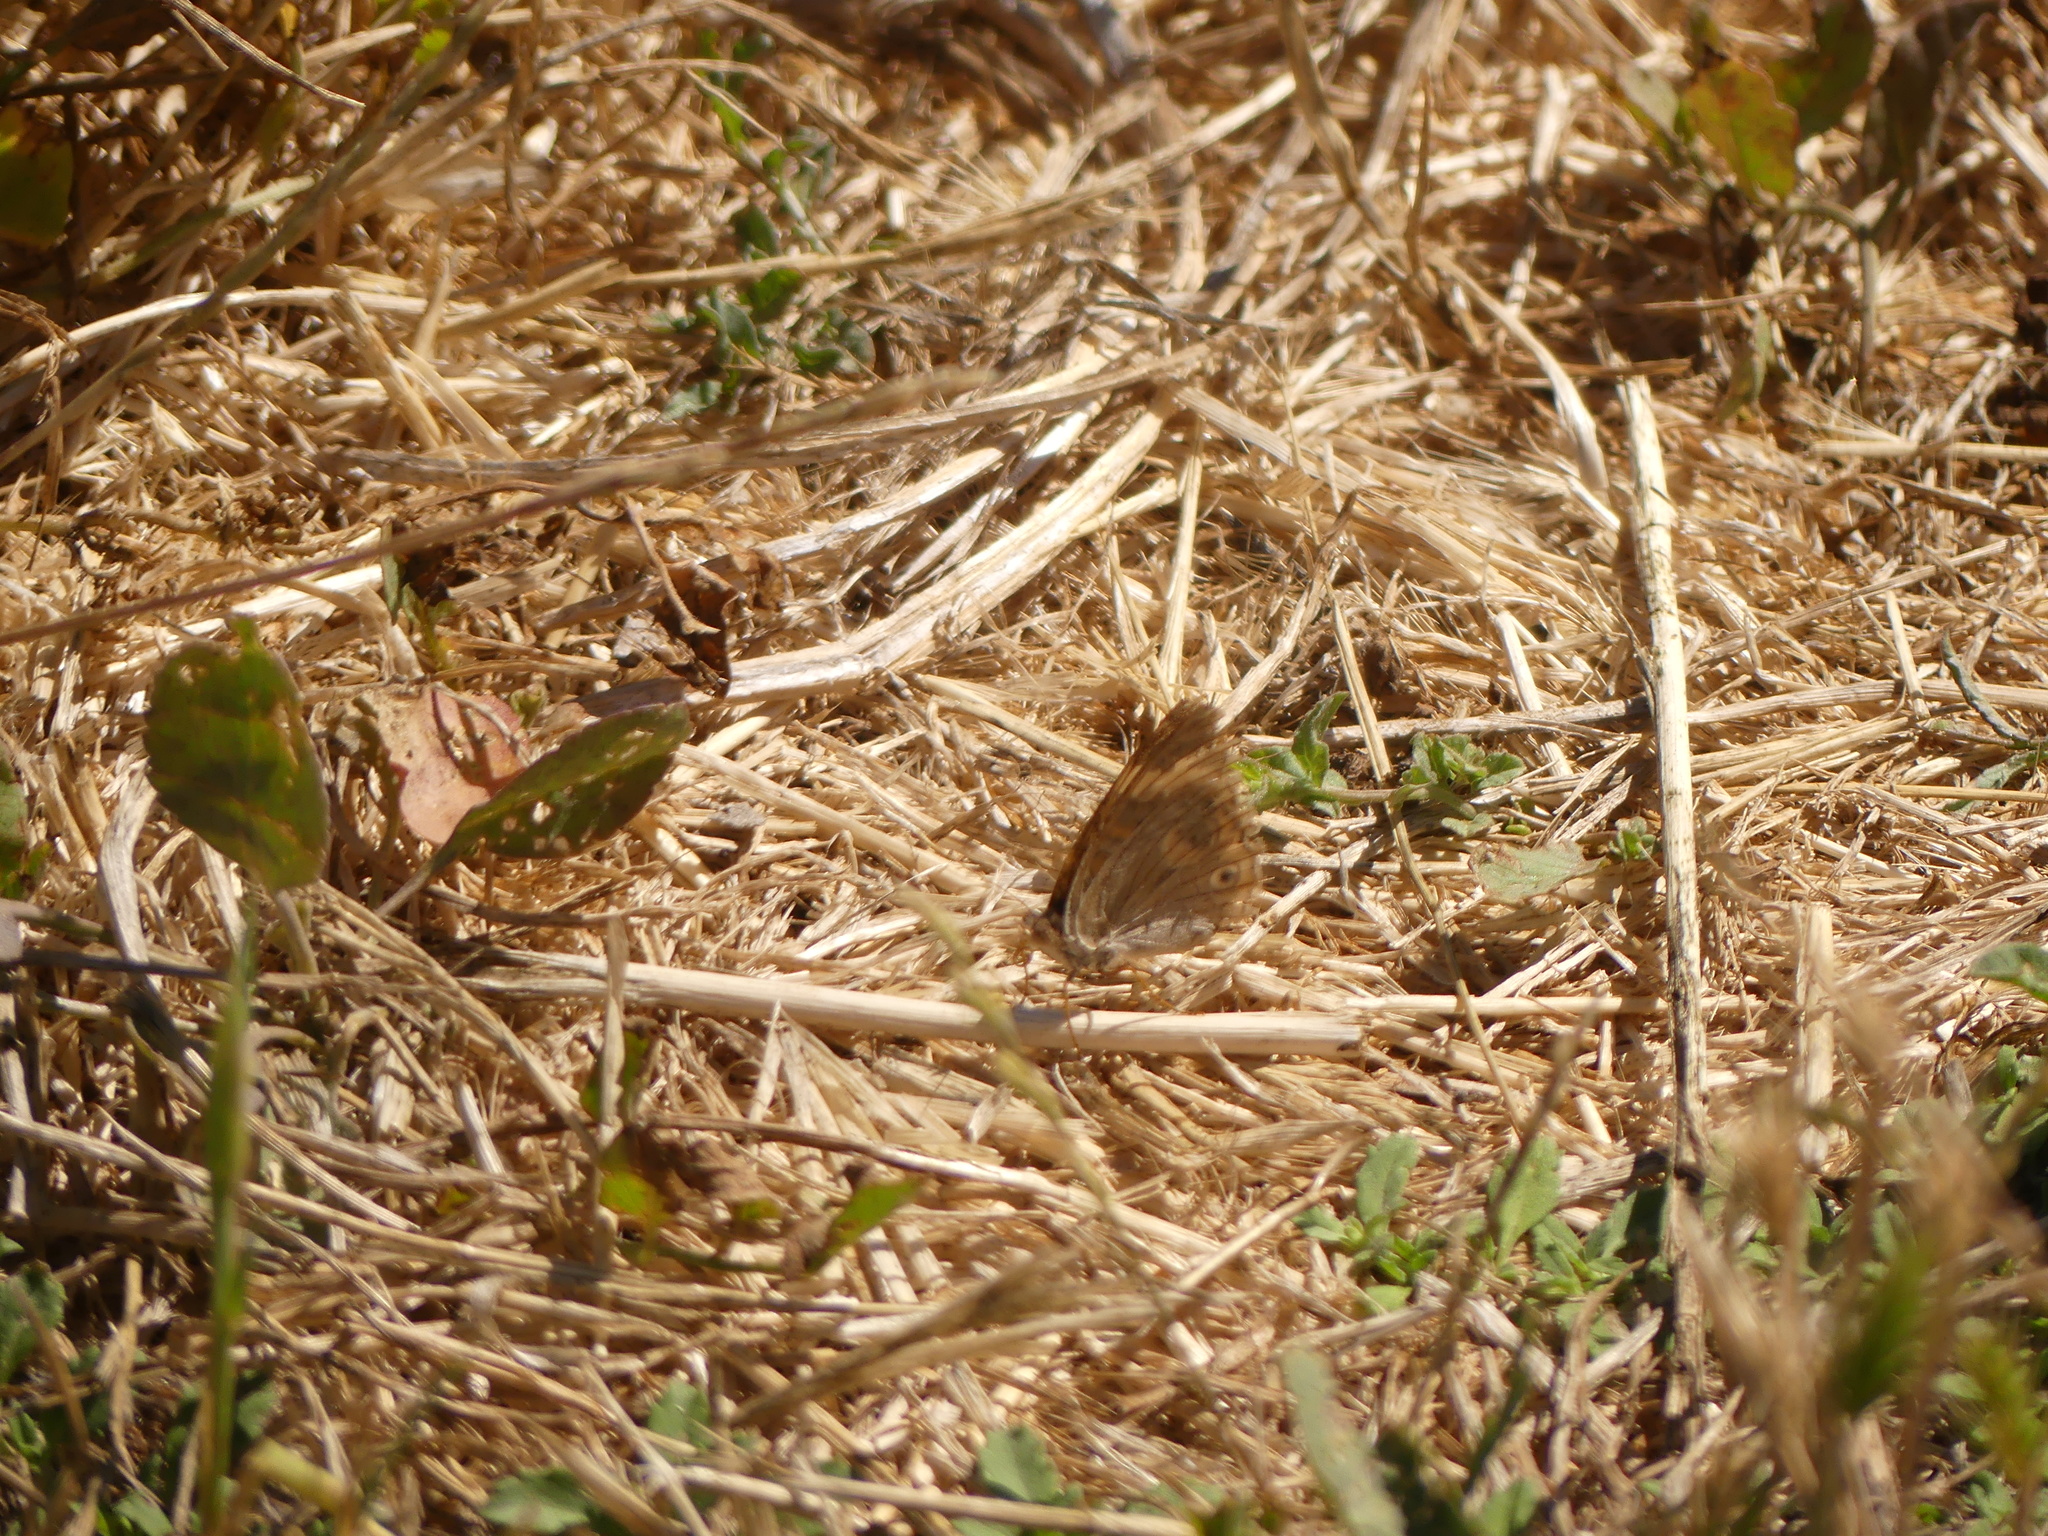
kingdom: Animalia
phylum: Arthropoda
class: Insecta
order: Lepidoptera
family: Nymphalidae
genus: Junonia
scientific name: Junonia grisea
